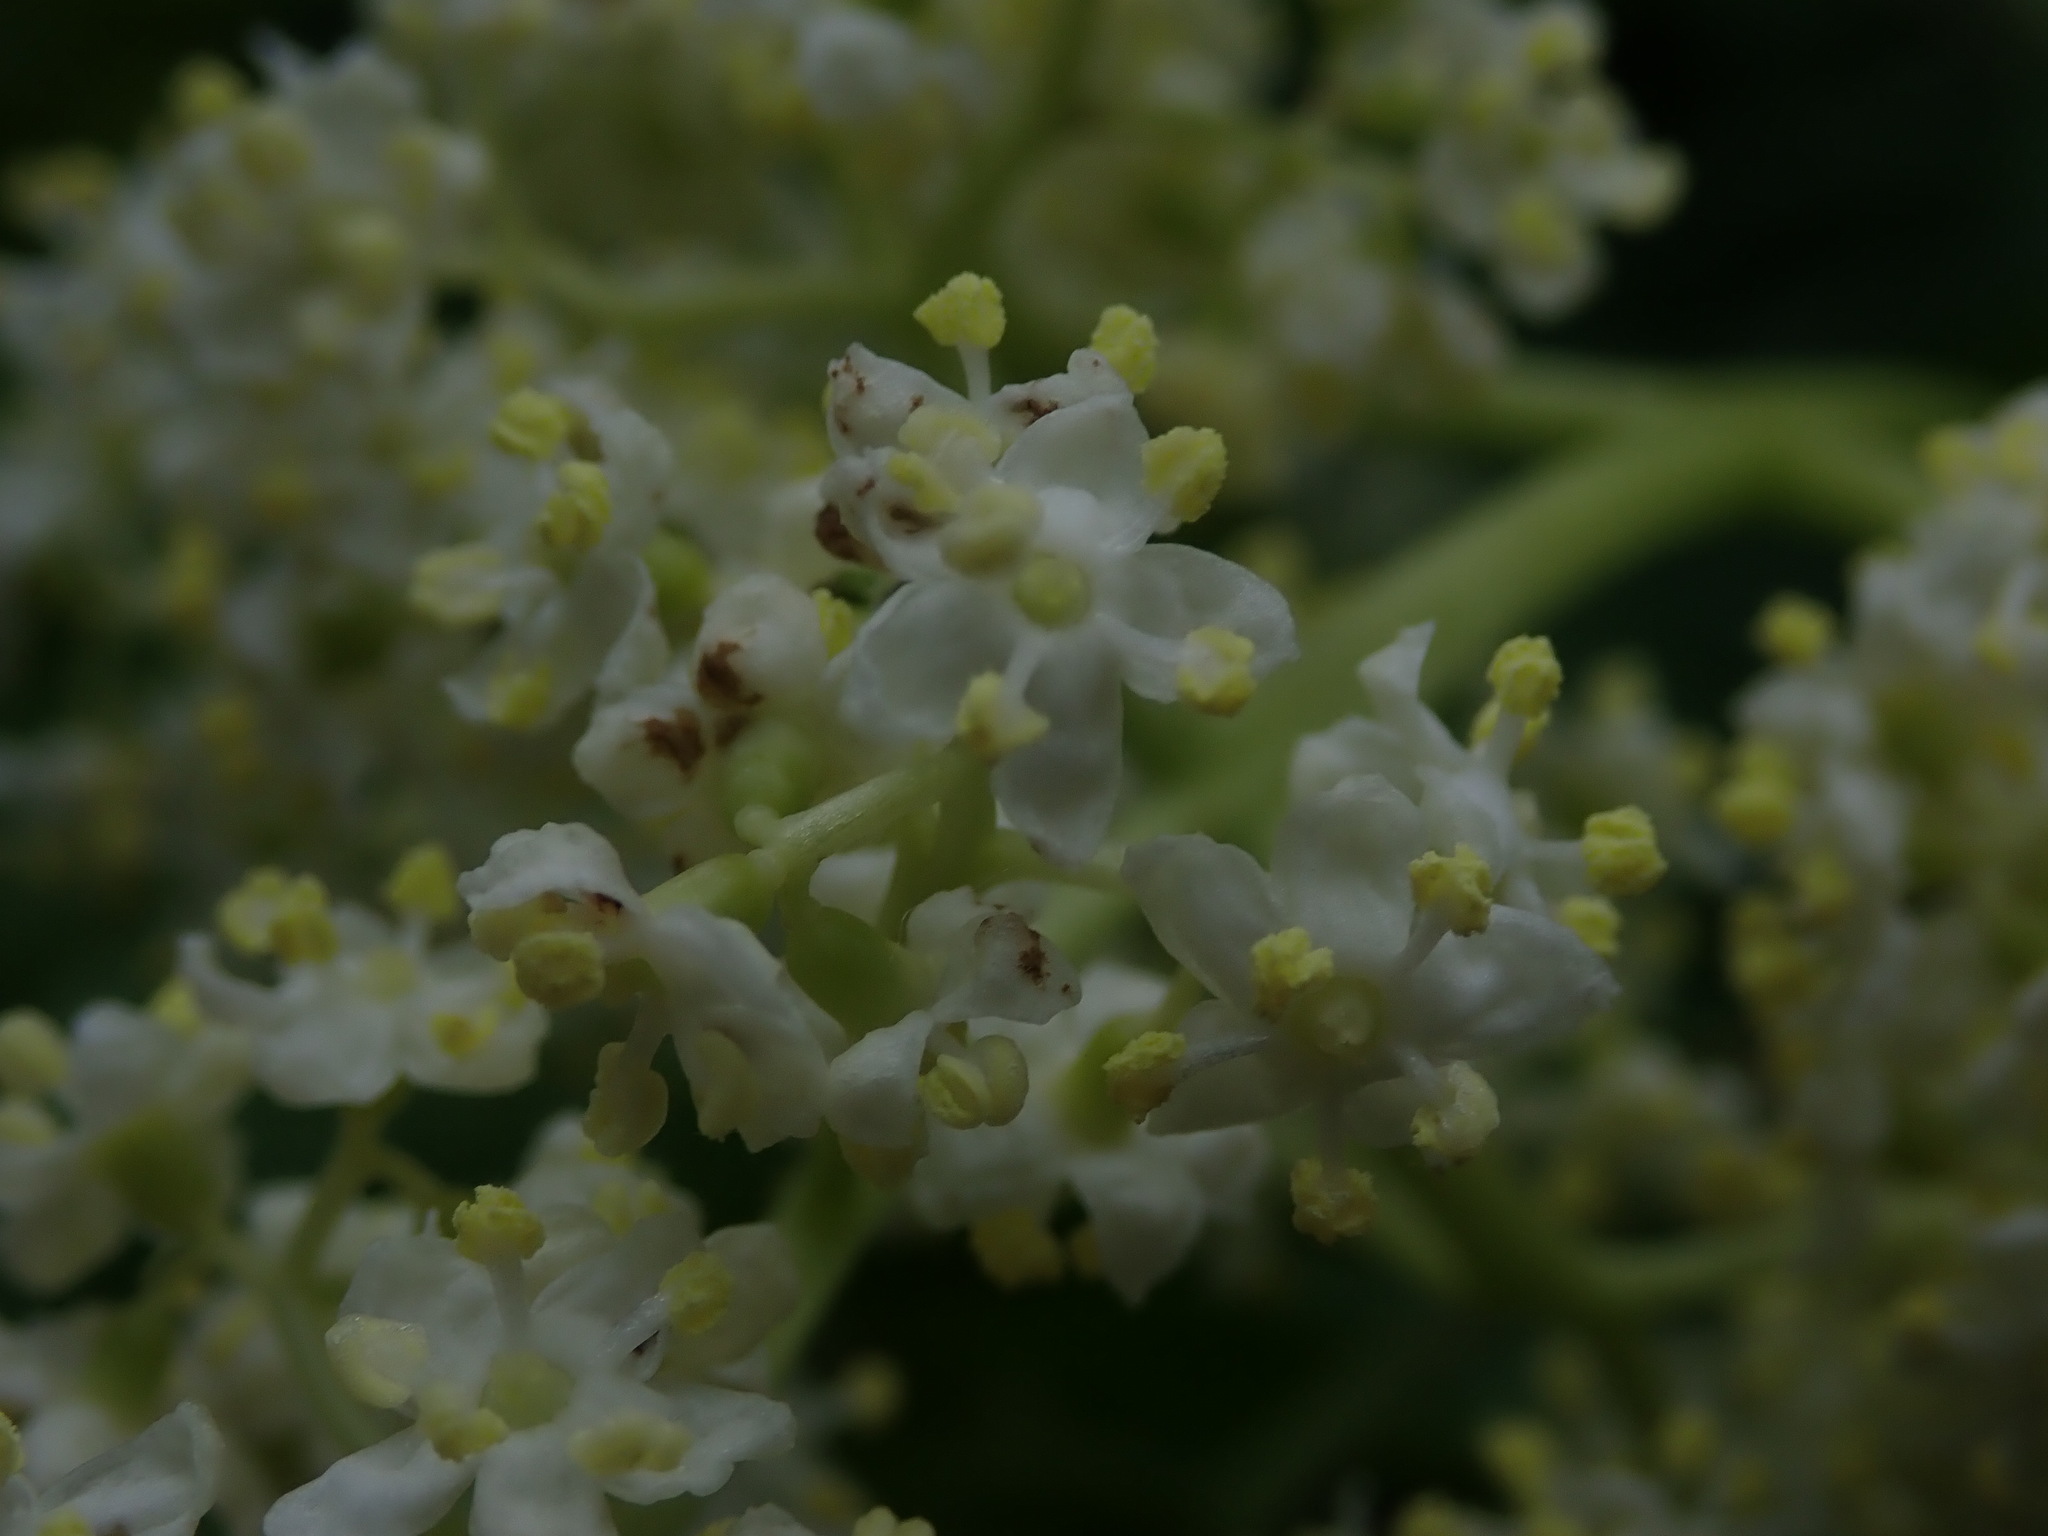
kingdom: Plantae
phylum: Tracheophyta
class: Magnoliopsida
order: Dipsacales
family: Viburnaceae
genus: Sambucus
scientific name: Sambucus racemosa
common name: Red-berried elder
